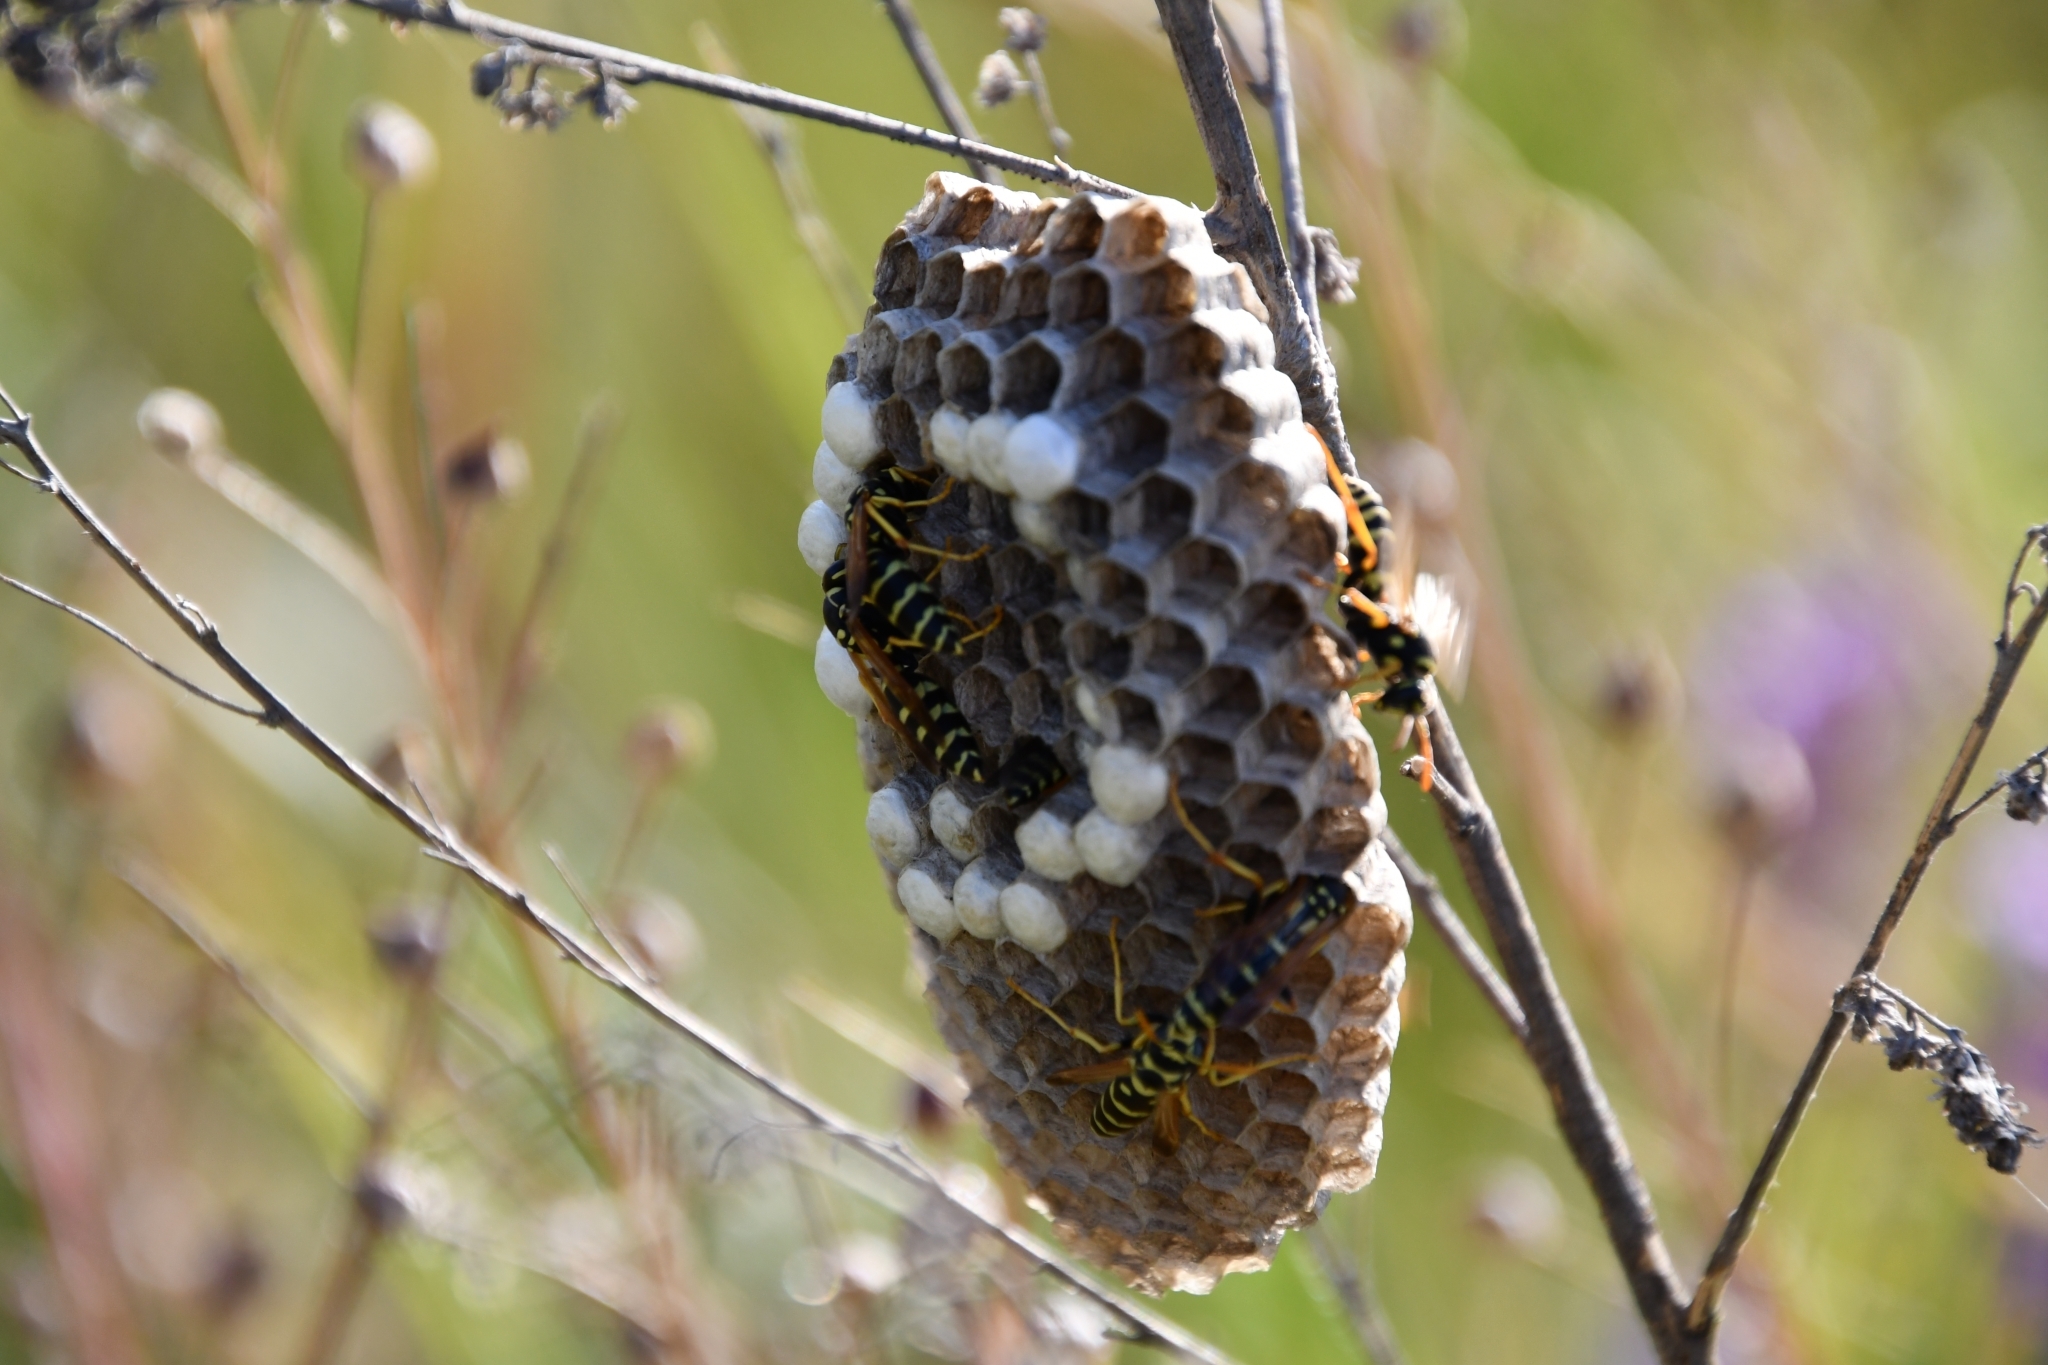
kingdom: Animalia
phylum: Arthropoda
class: Insecta
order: Hymenoptera
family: Eumenidae
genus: Polistes
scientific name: Polistes gallicus
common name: Paper wasp
